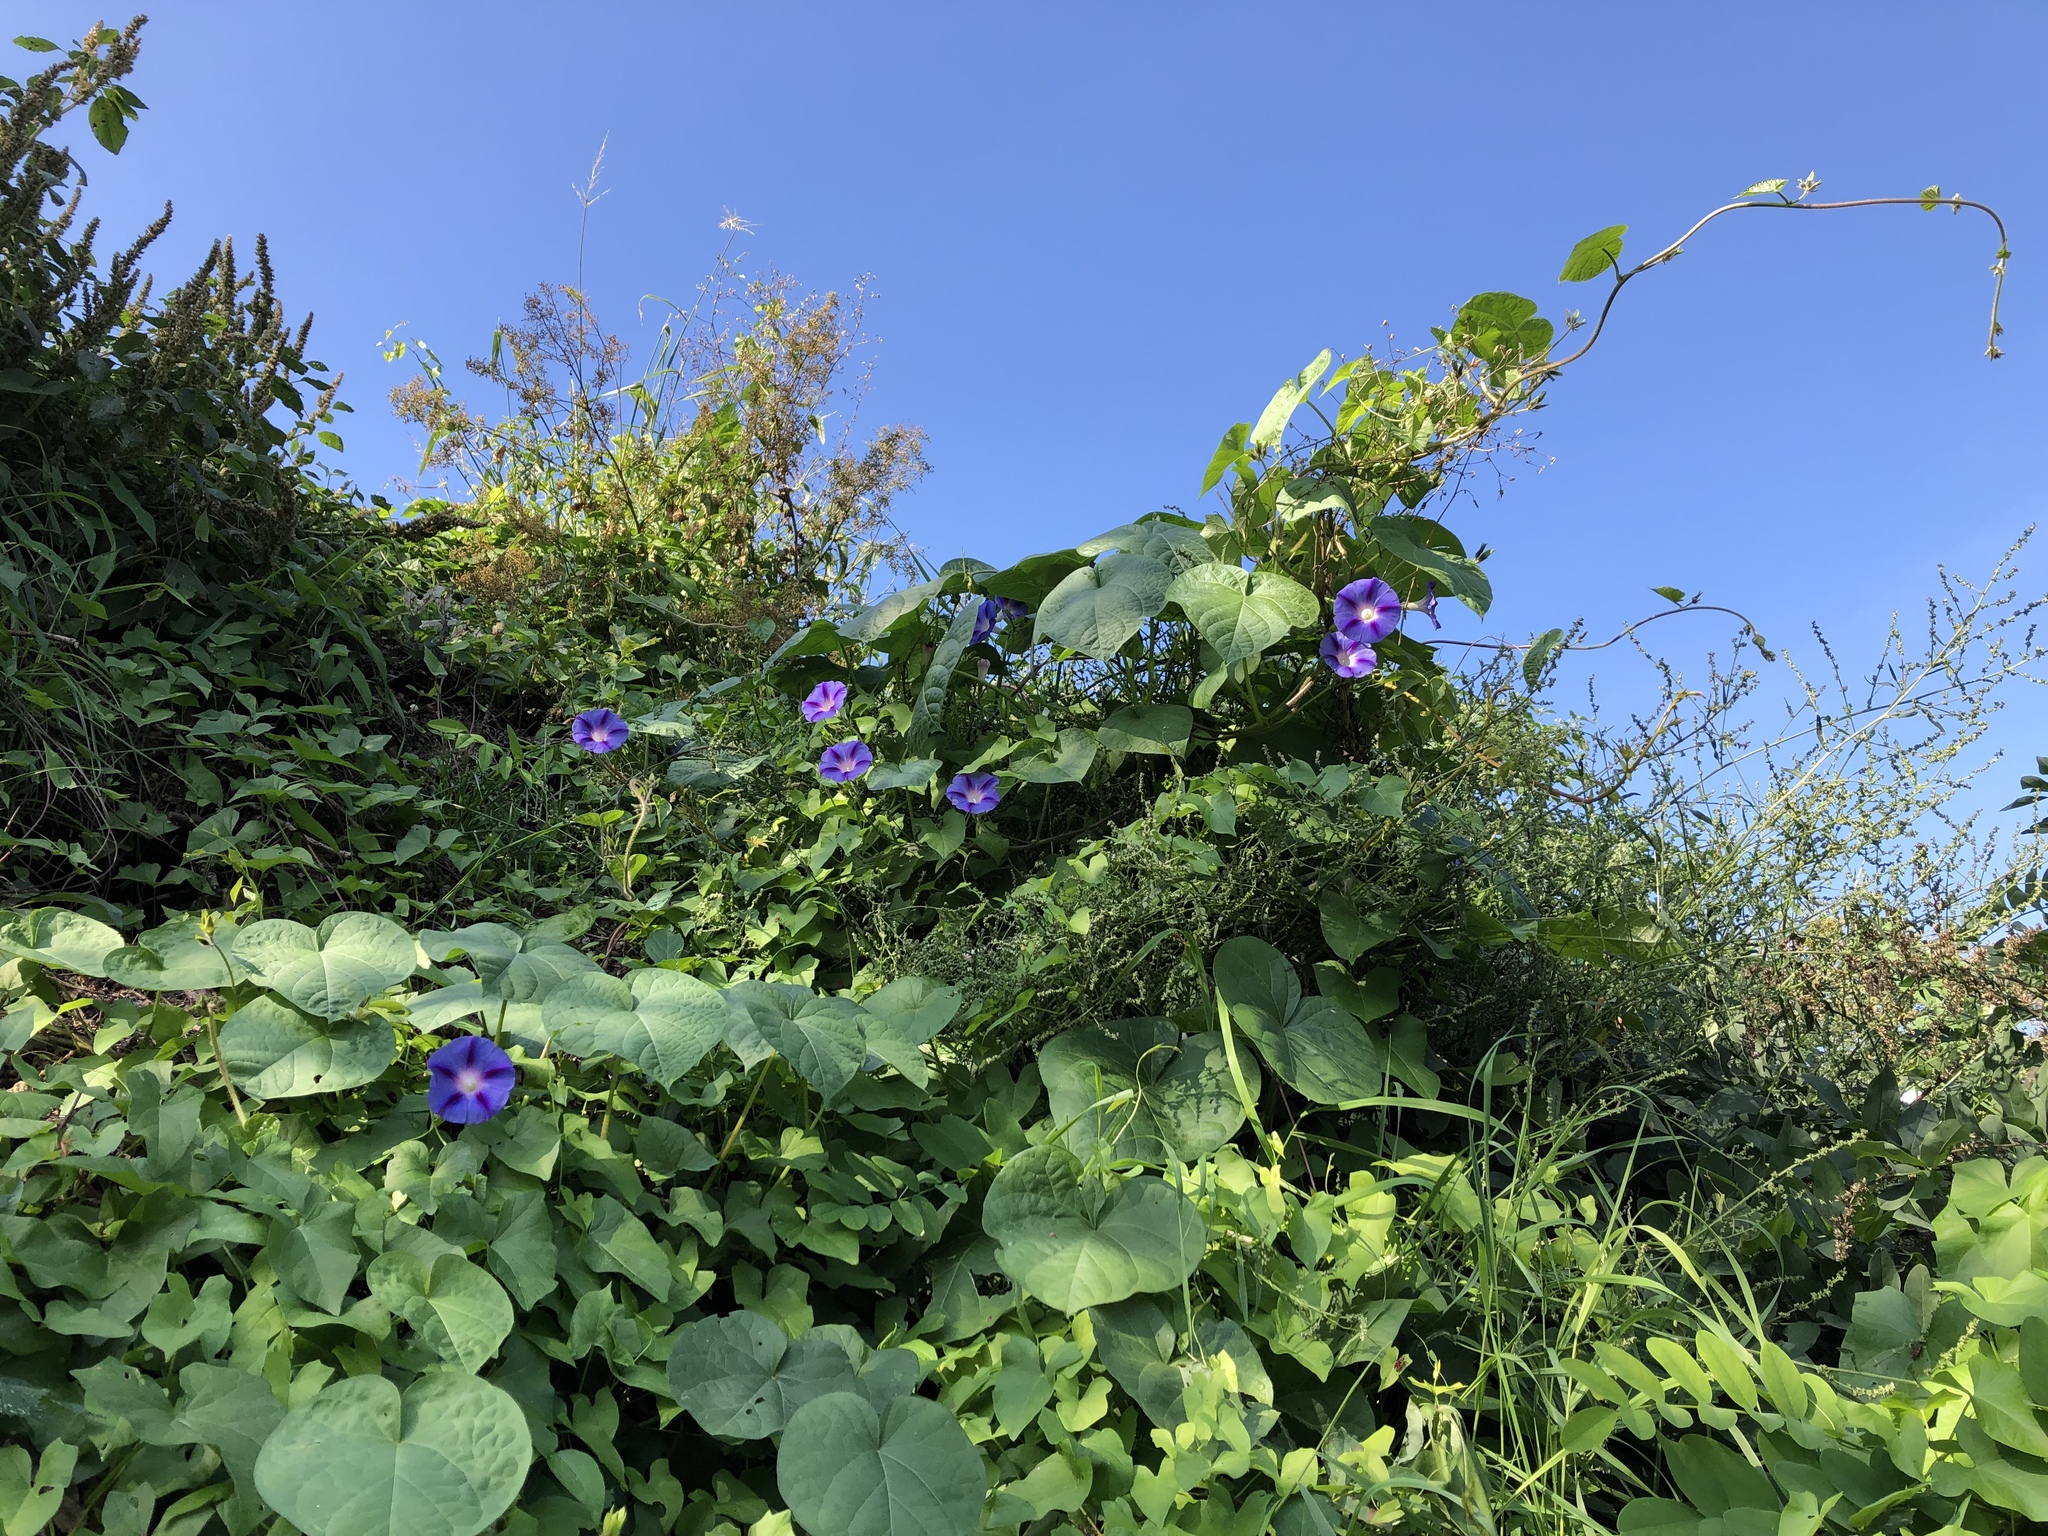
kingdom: Plantae
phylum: Tracheophyta
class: Magnoliopsida
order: Solanales
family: Convolvulaceae
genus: Ipomoea
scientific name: Ipomoea purpurea
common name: Common morning-glory
